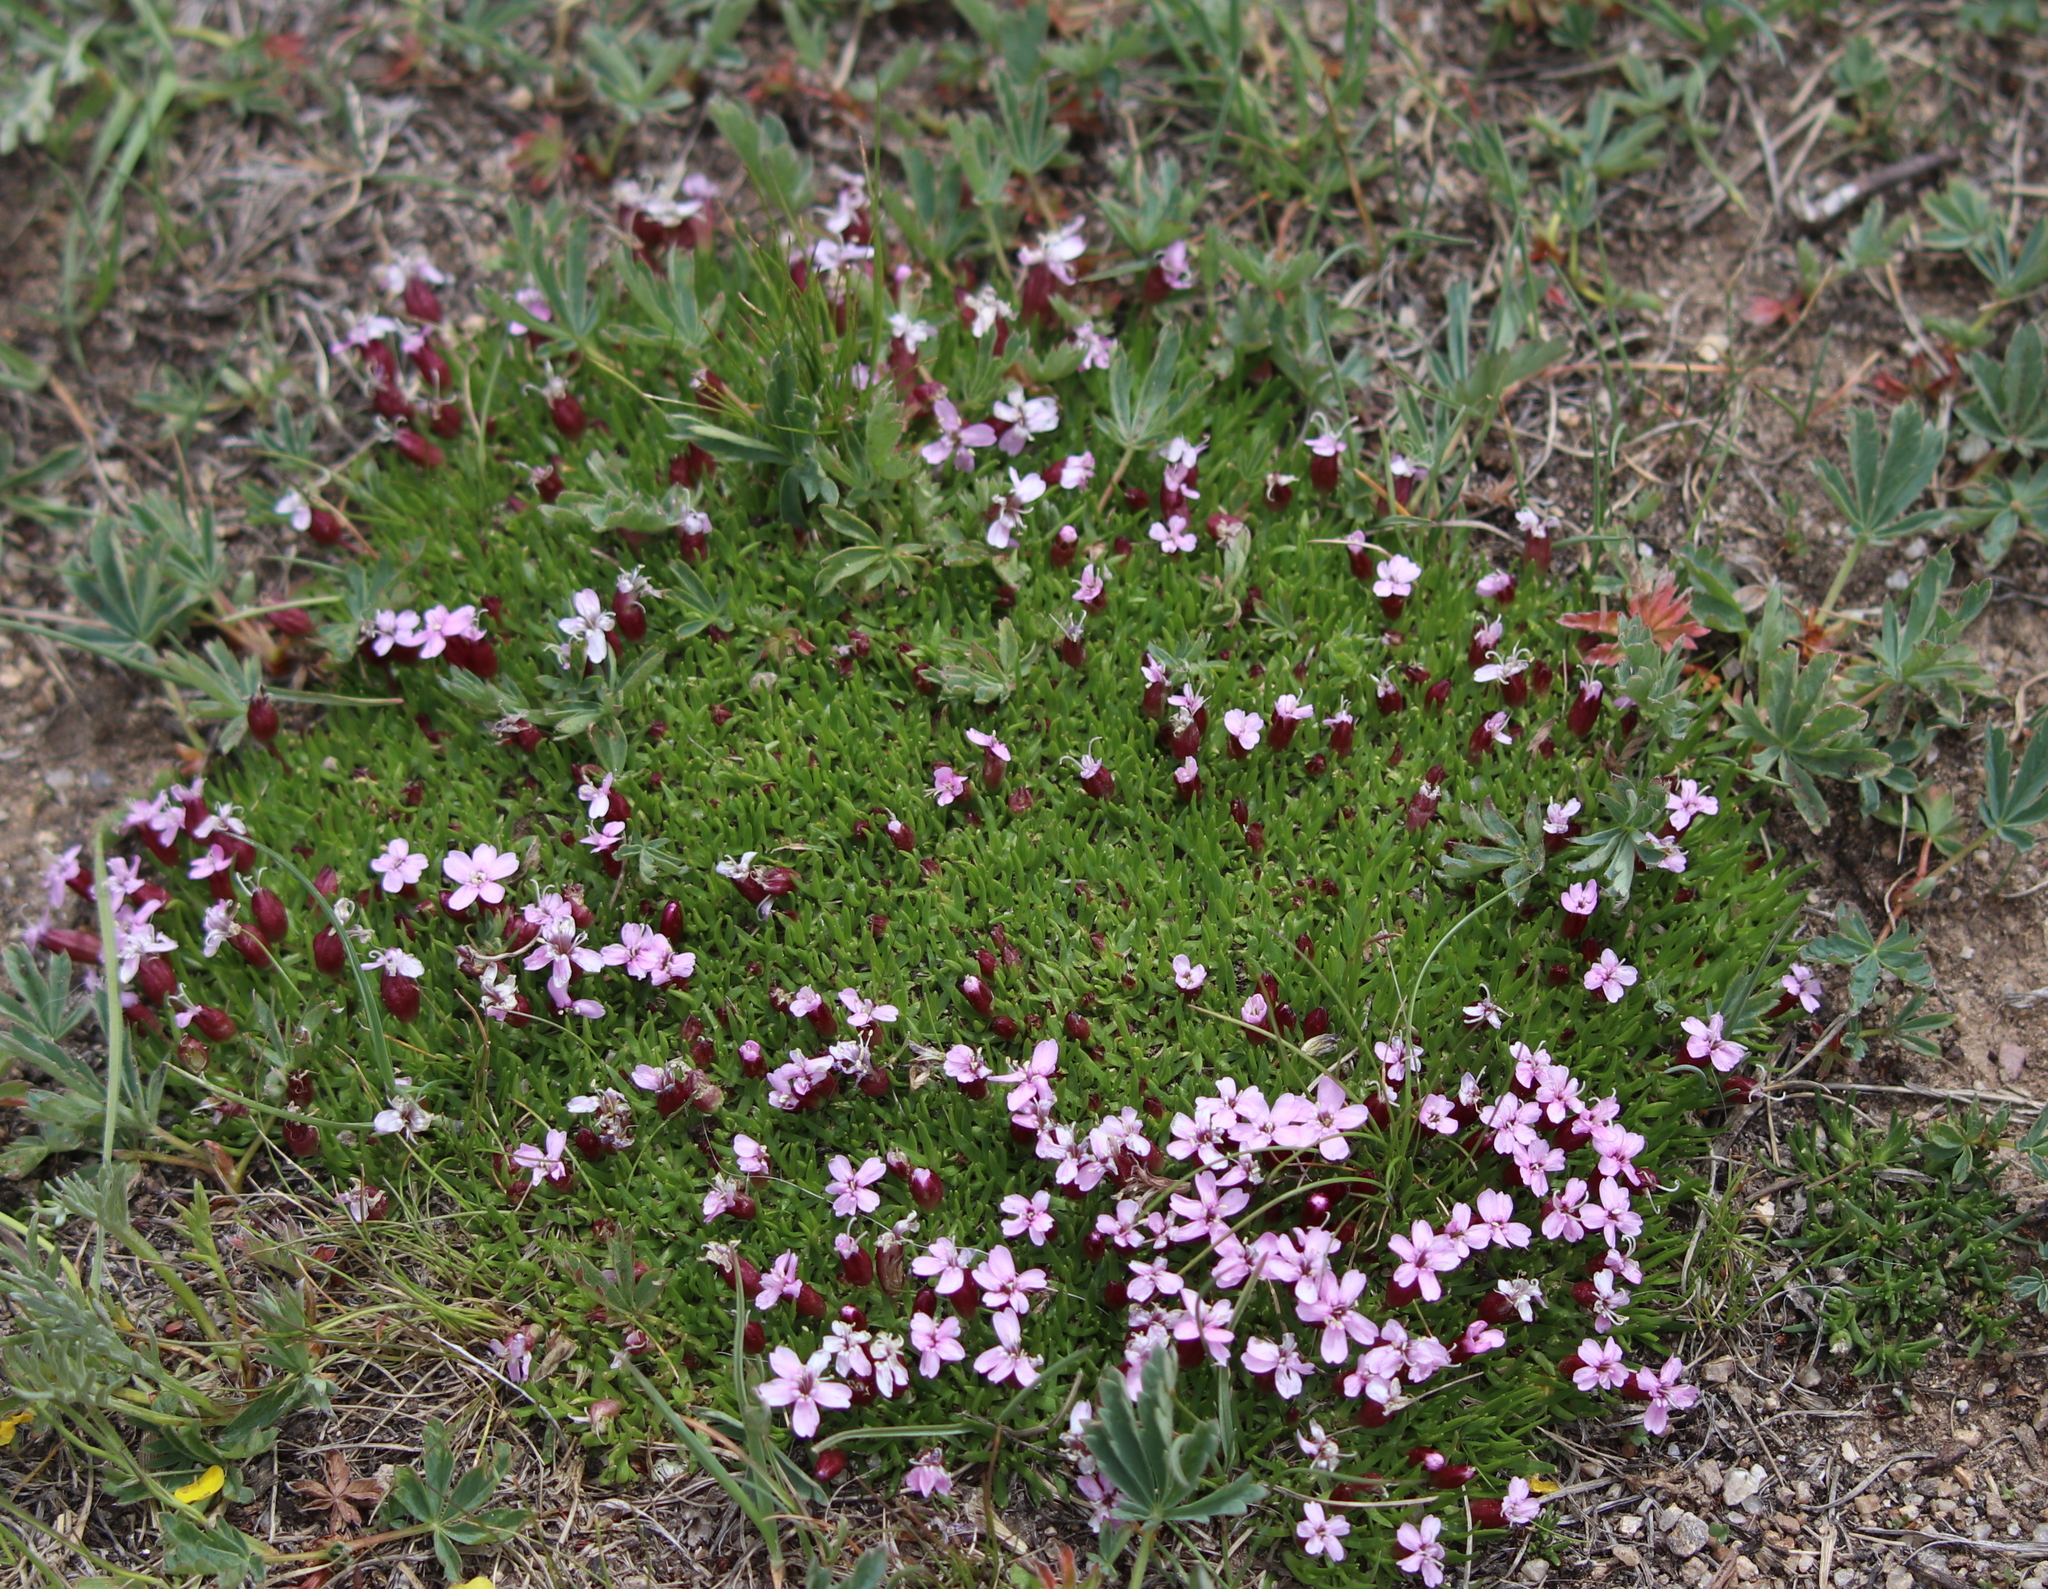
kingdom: Plantae
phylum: Tracheophyta
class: Magnoliopsida
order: Caryophyllales
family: Caryophyllaceae
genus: Silene
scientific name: Silene acaulis
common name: Moss campion
